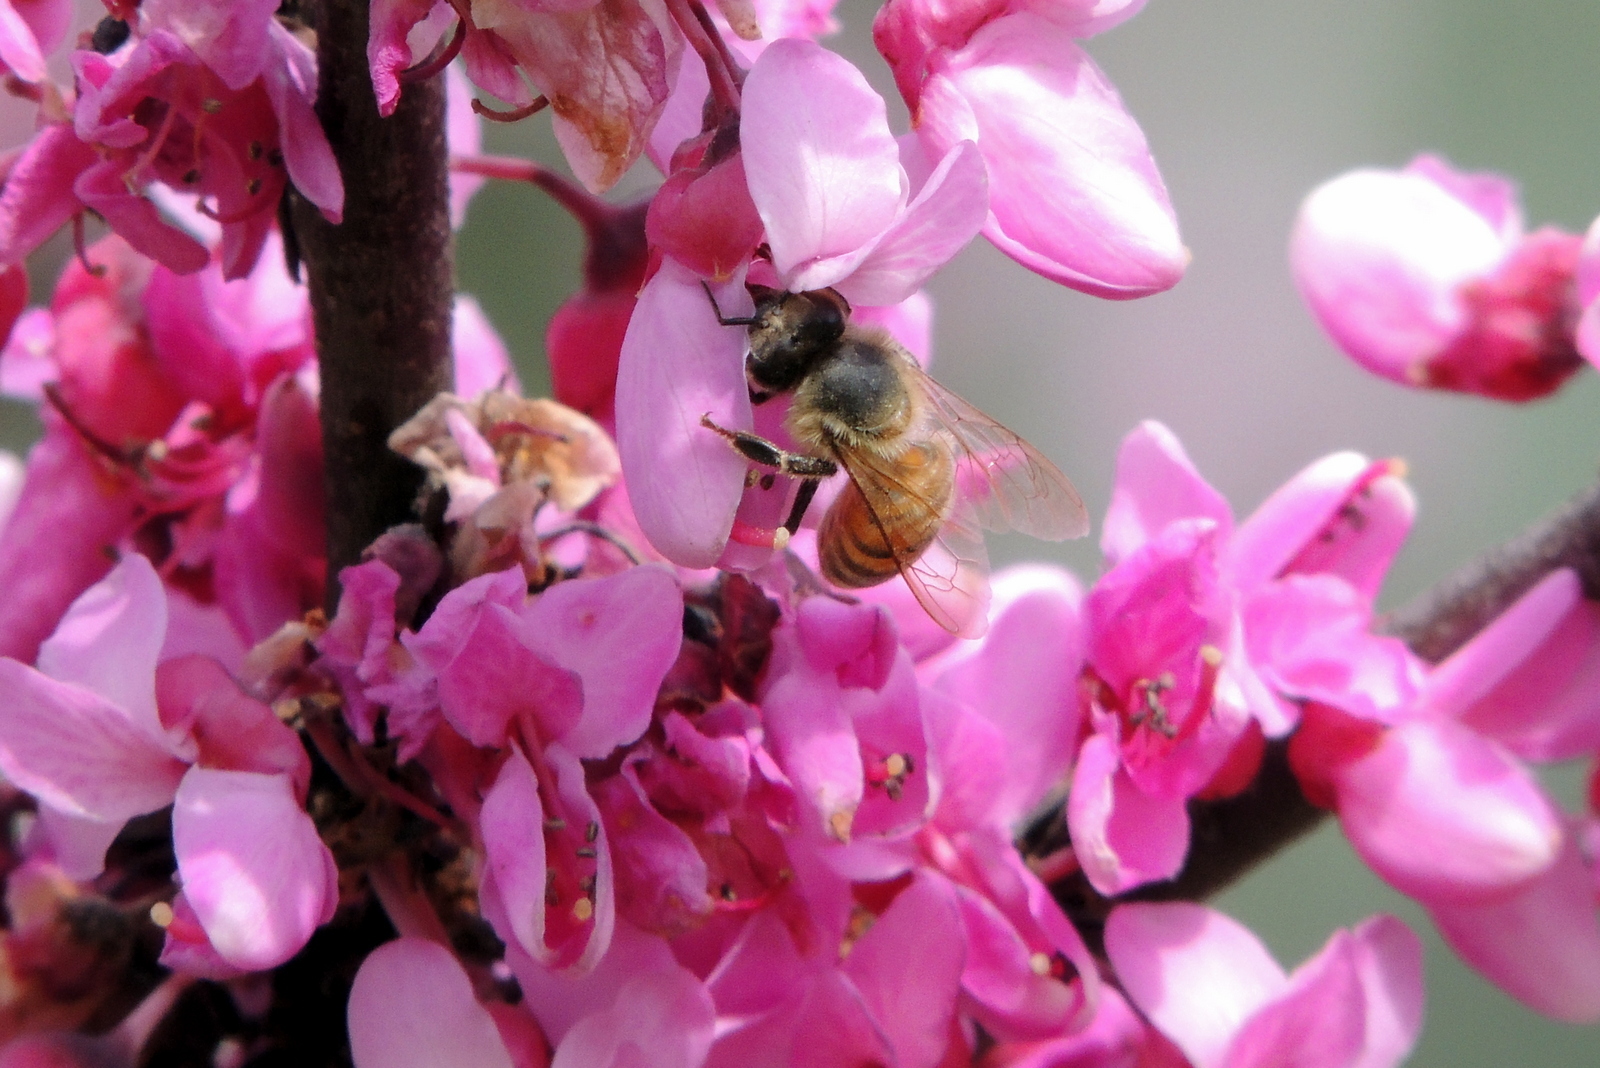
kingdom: Animalia
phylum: Arthropoda
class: Insecta
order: Hymenoptera
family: Apidae
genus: Apis
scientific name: Apis mellifera
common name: Honey bee
